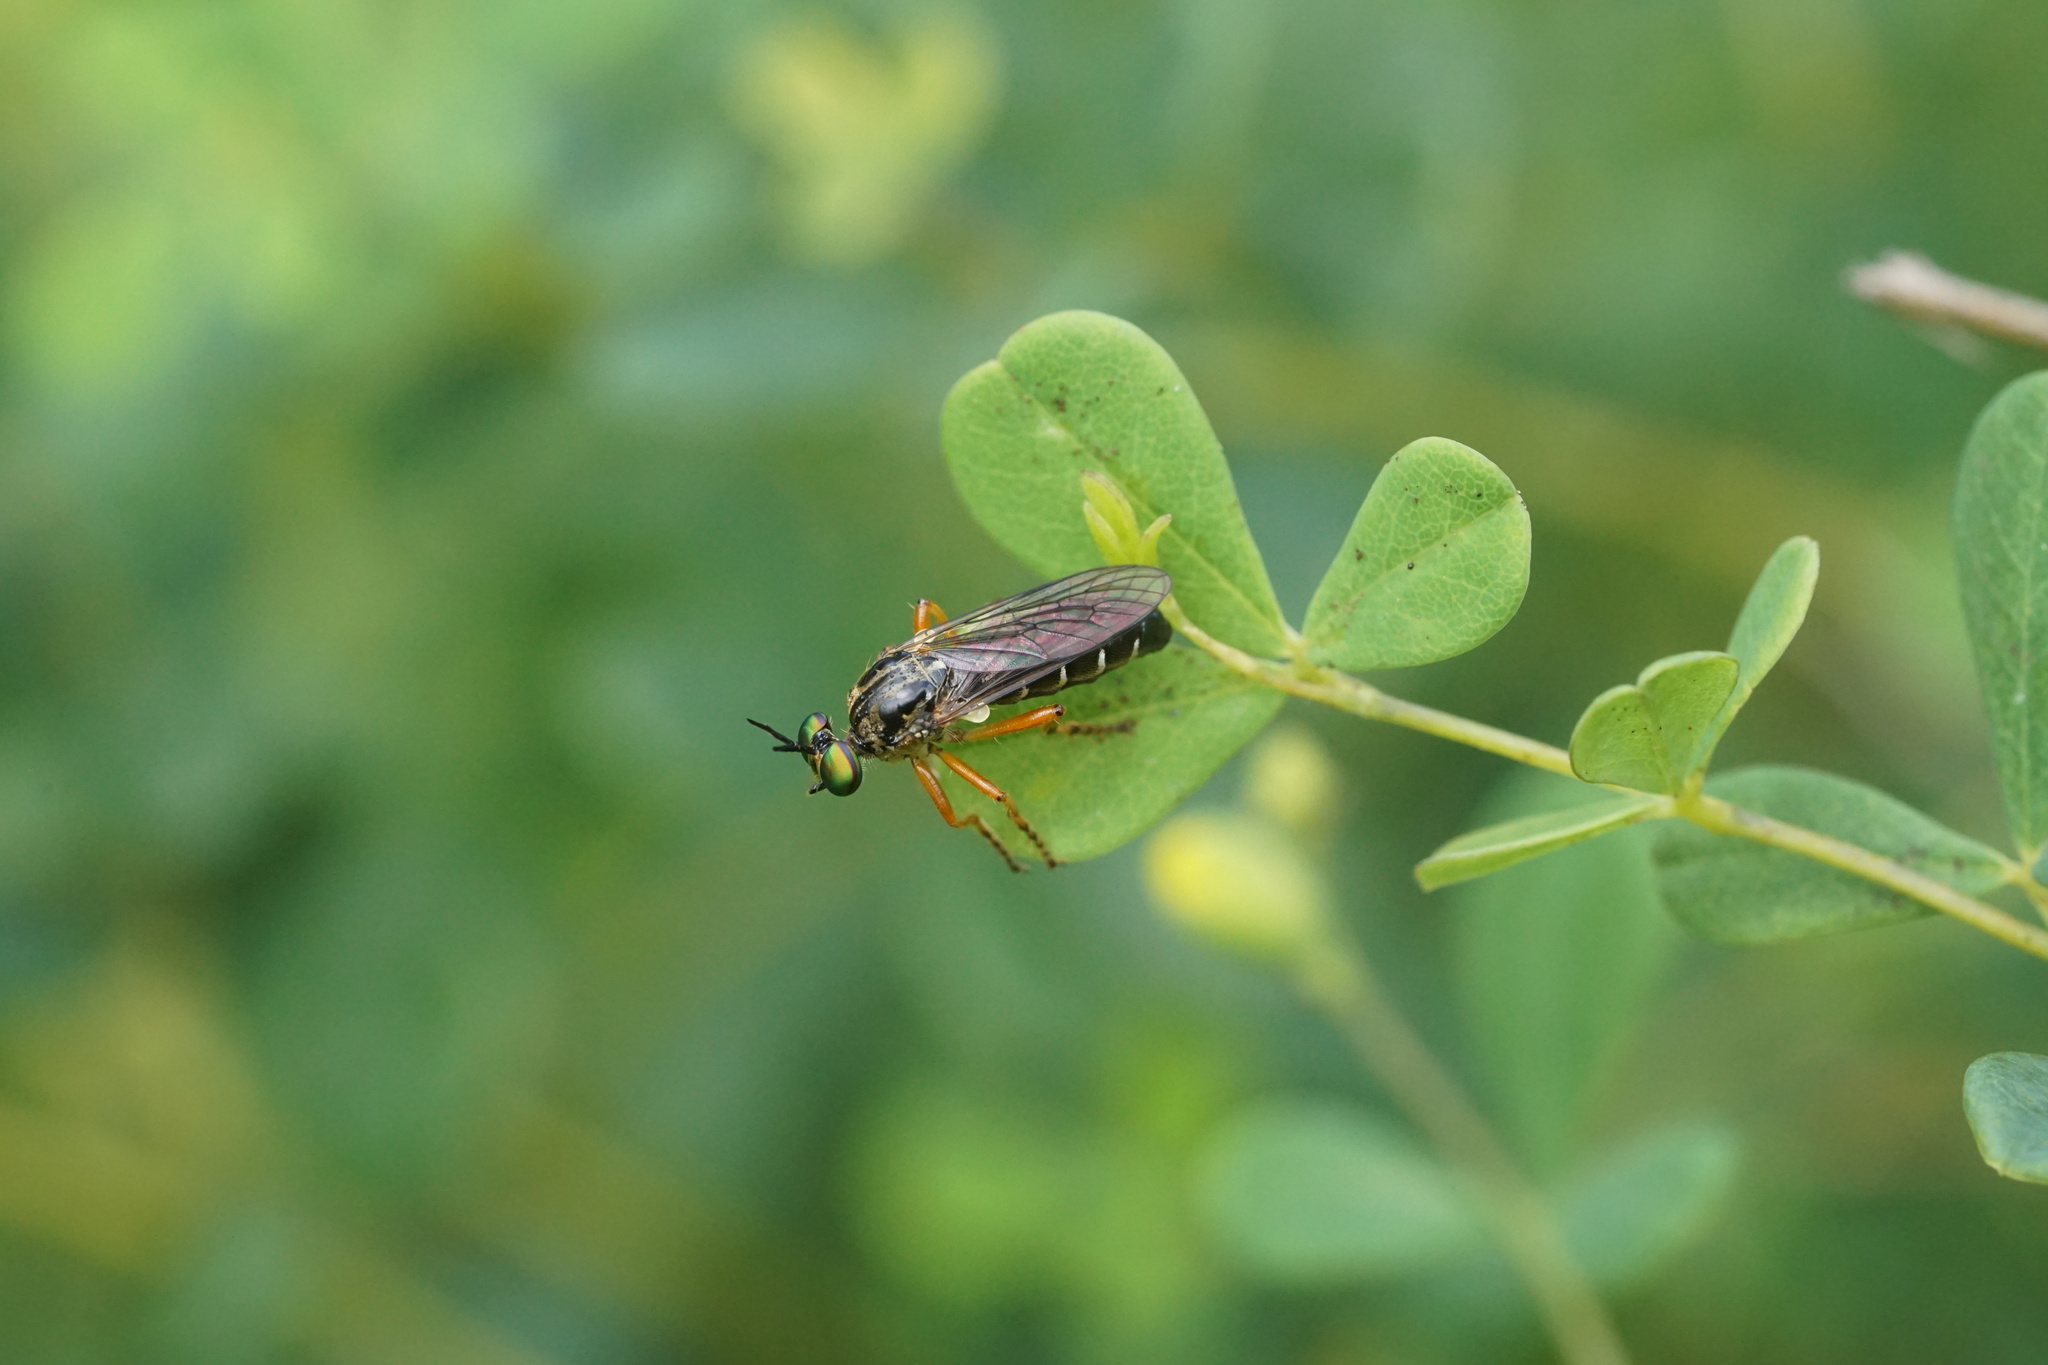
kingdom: Animalia
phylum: Arthropoda
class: Insecta
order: Diptera
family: Asilidae
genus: Taracticus
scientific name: Taracticus octopunctatus
